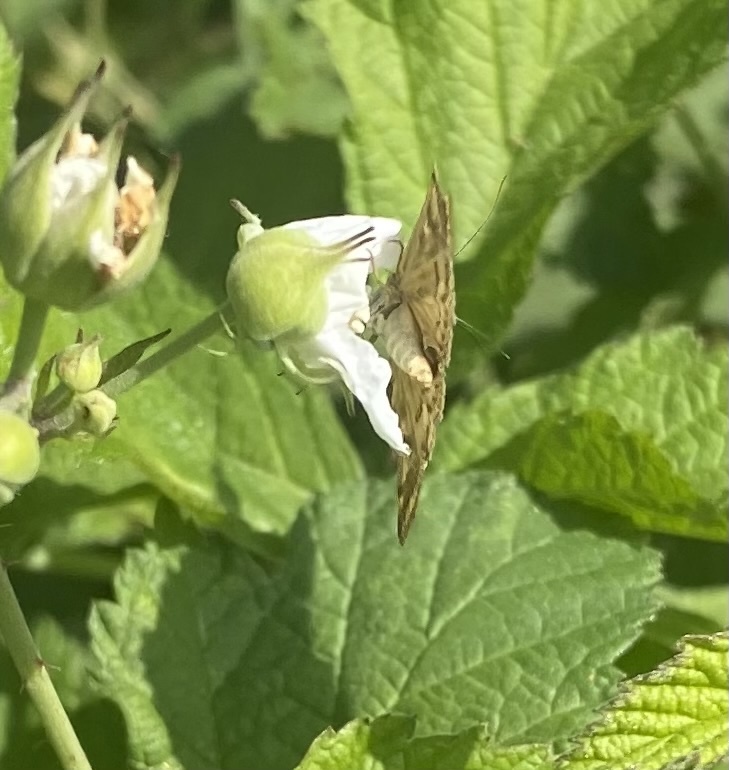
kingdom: Animalia
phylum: Arthropoda
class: Insecta
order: Lepidoptera
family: Crambidae
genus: Loxostege
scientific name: Loxostege sticticalis
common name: Crambid moth
